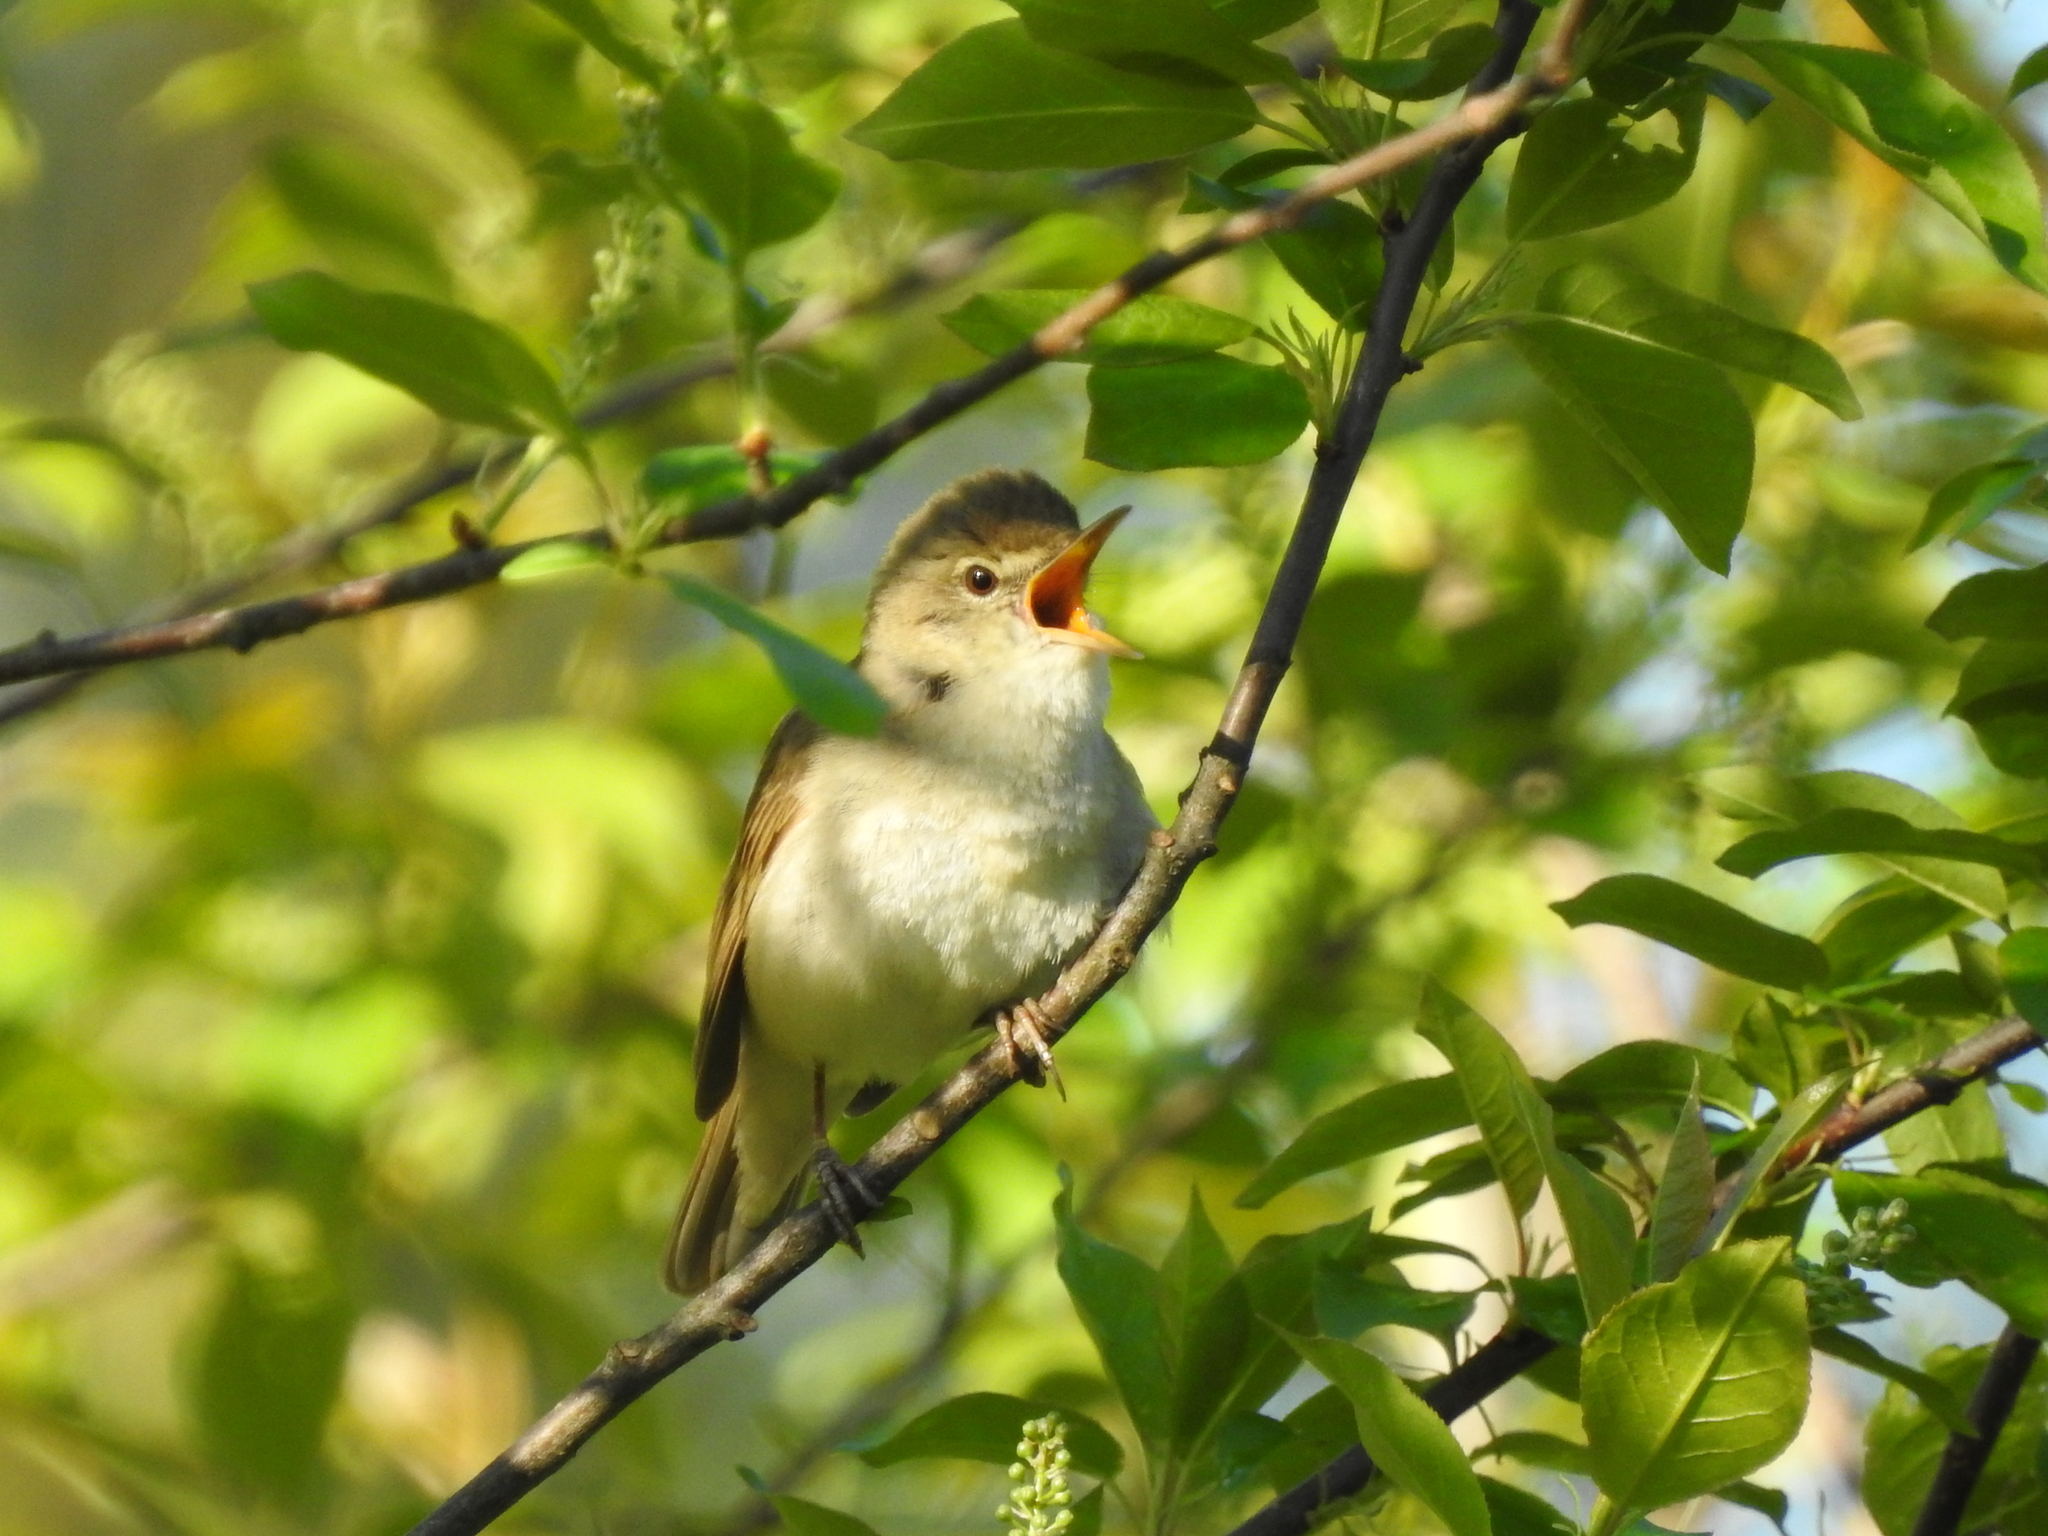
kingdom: Animalia
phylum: Chordata
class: Aves
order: Passeriformes
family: Acrocephalidae
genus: Acrocephalus
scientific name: Acrocephalus dumetorum
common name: Blyth's reed warbler
